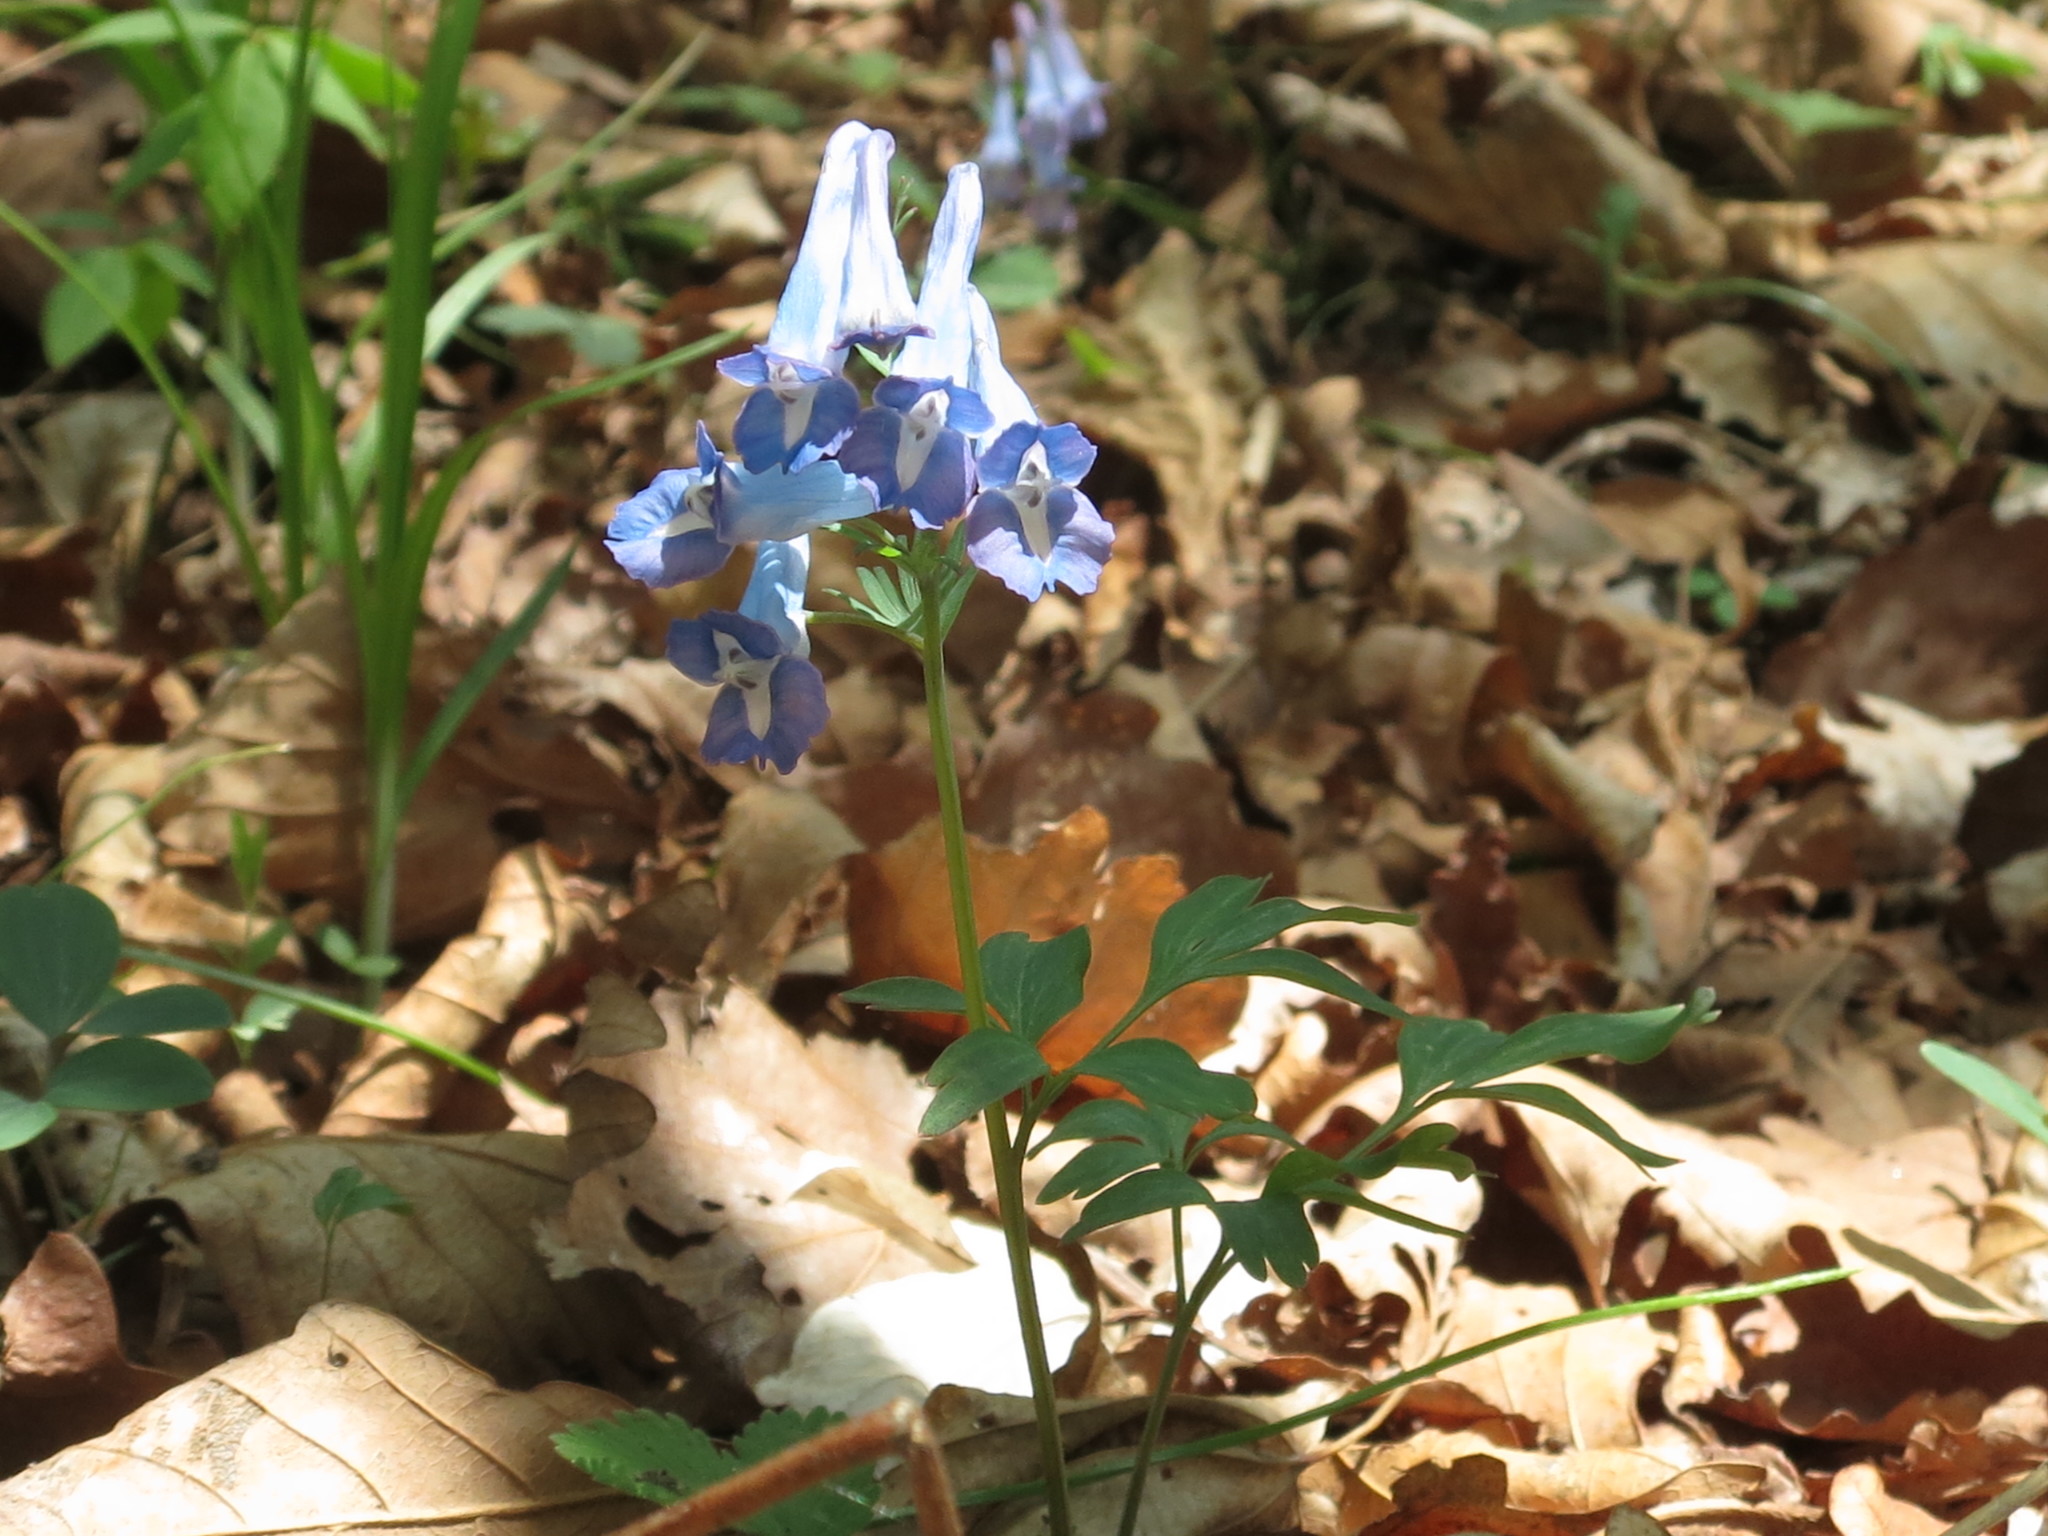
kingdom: Plantae
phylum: Tracheophyta
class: Magnoliopsida
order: Ranunculales
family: Papaveraceae
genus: Corydalis
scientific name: Corydalis turtschaninovii
